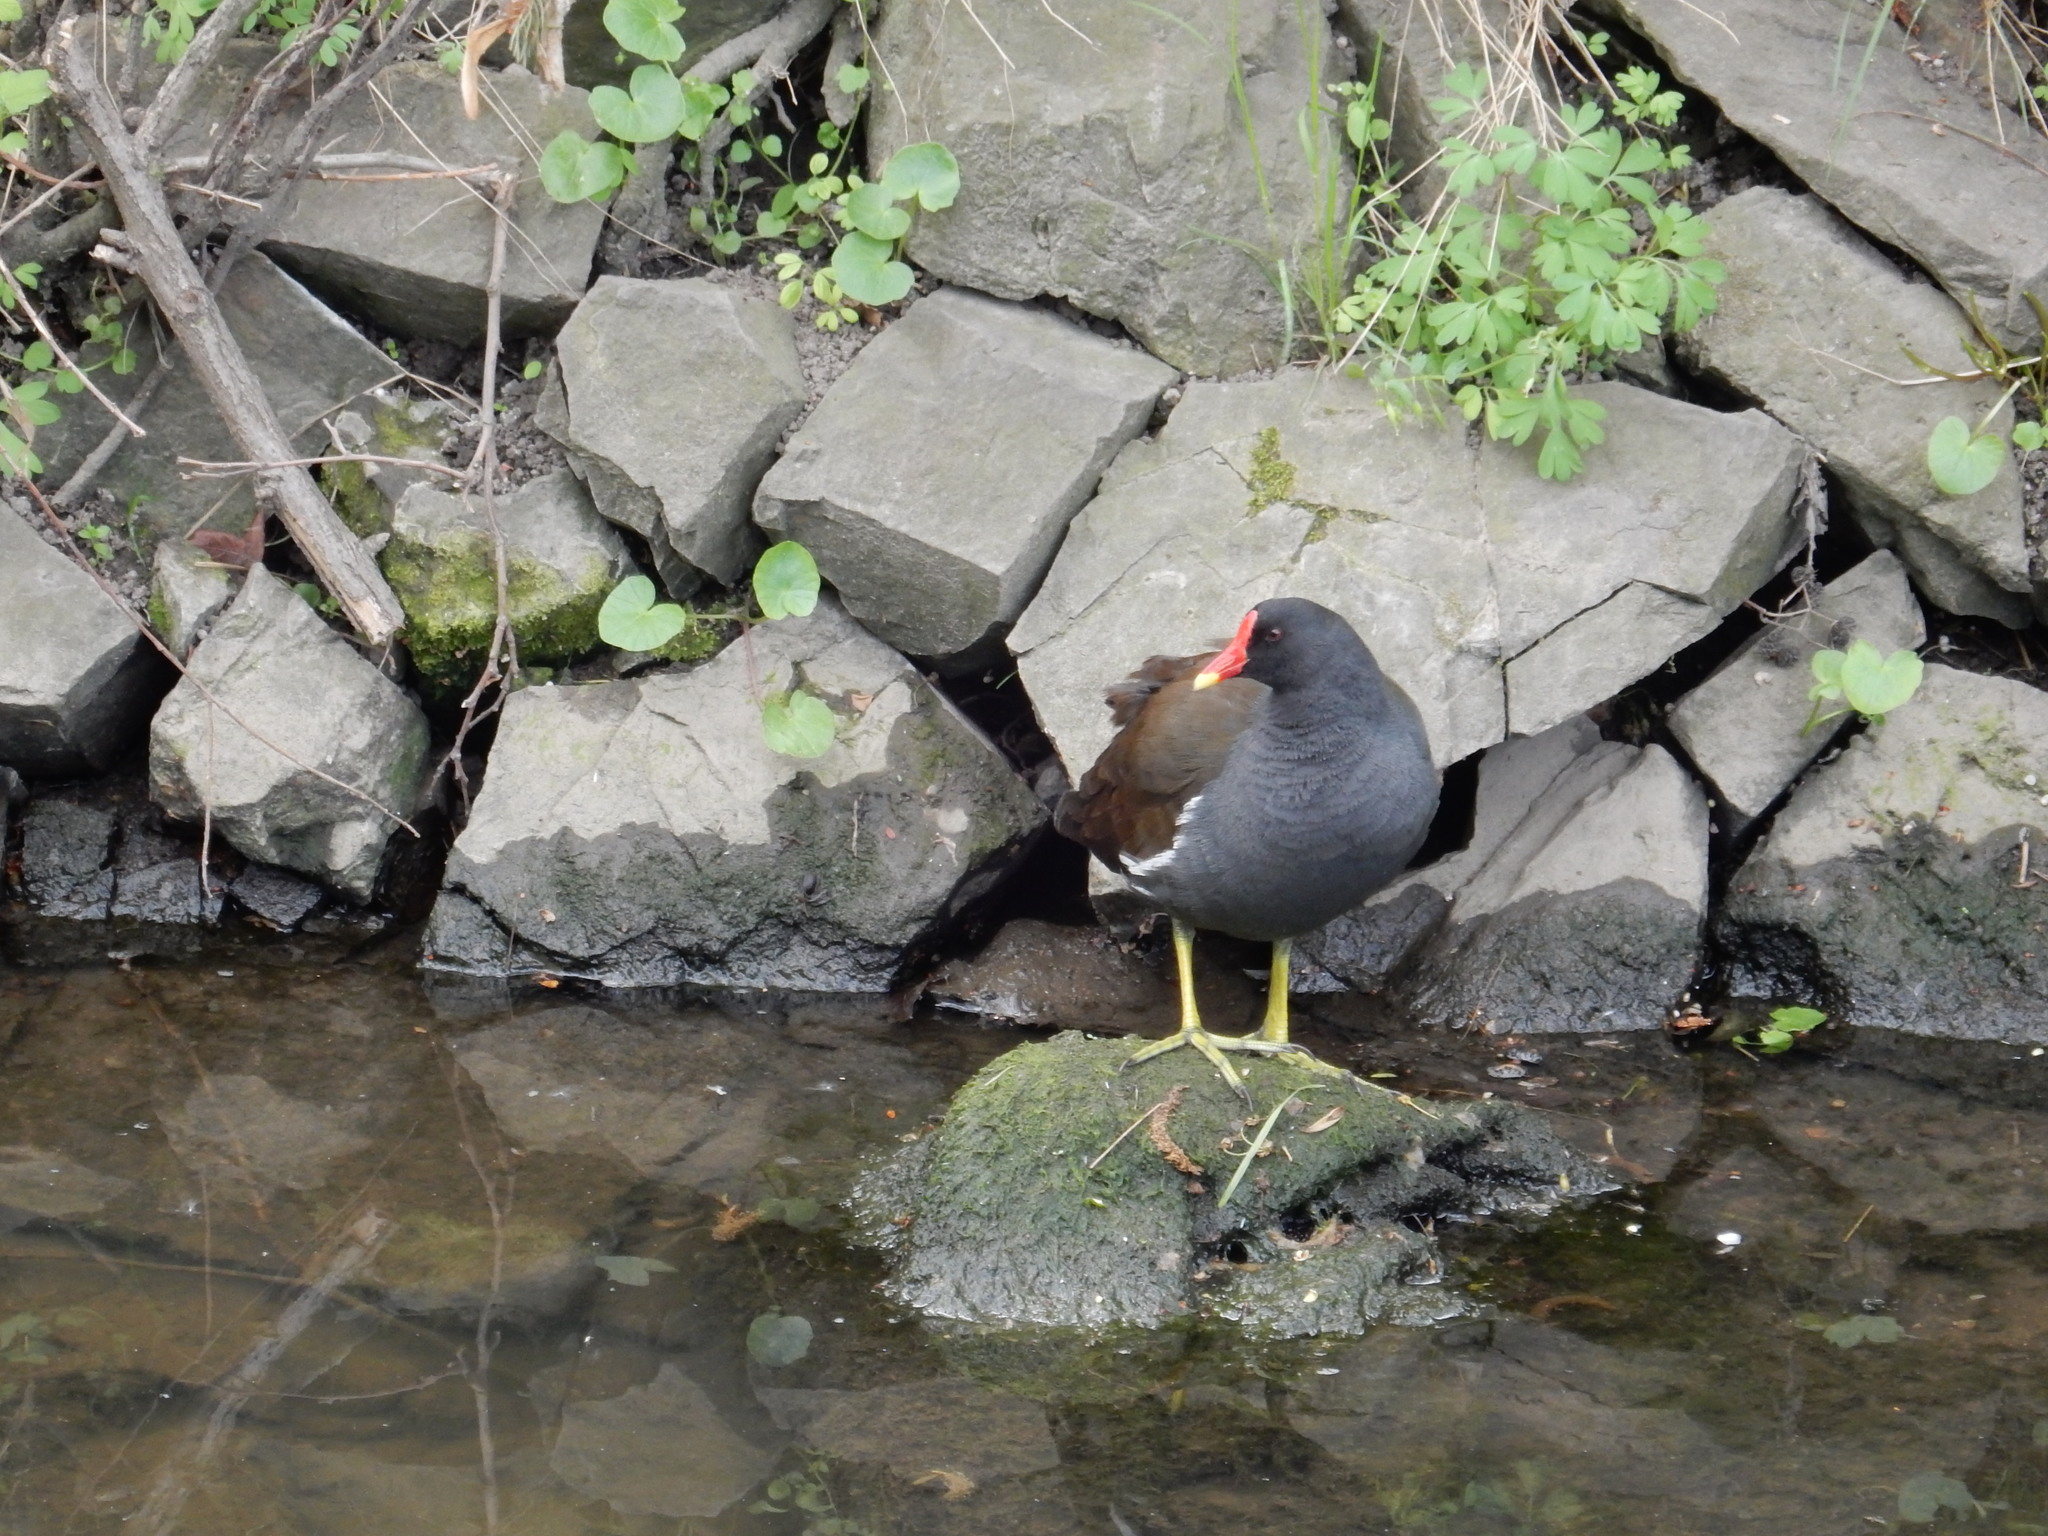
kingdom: Animalia
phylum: Chordata
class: Aves
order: Gruiformes
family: Rallidae
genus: Gallinula
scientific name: Gallinula chloropus
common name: Common moorhen
